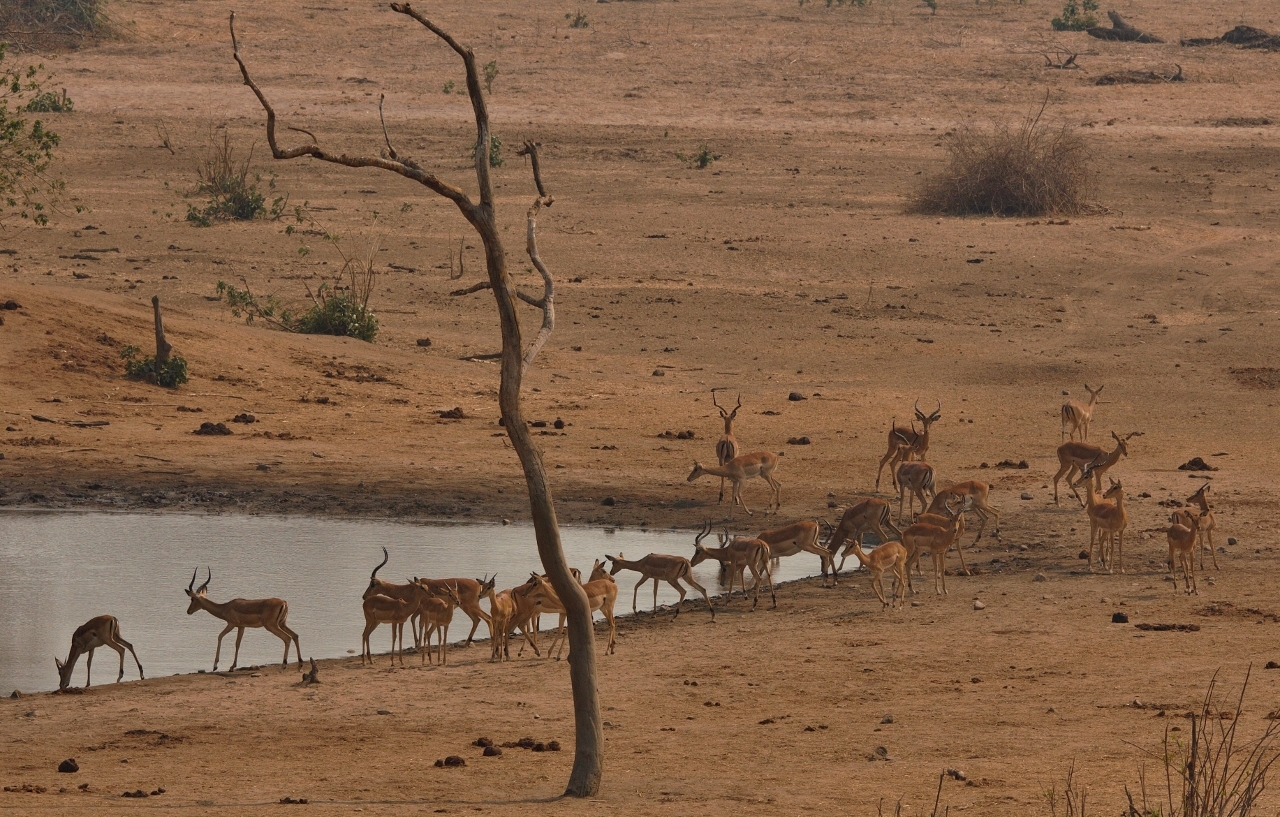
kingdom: Animalia
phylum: Chordata
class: Mammalia
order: Artiodactyla
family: Bovidae
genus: Aepyceros
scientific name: Aepyceros melampus
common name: Impala
